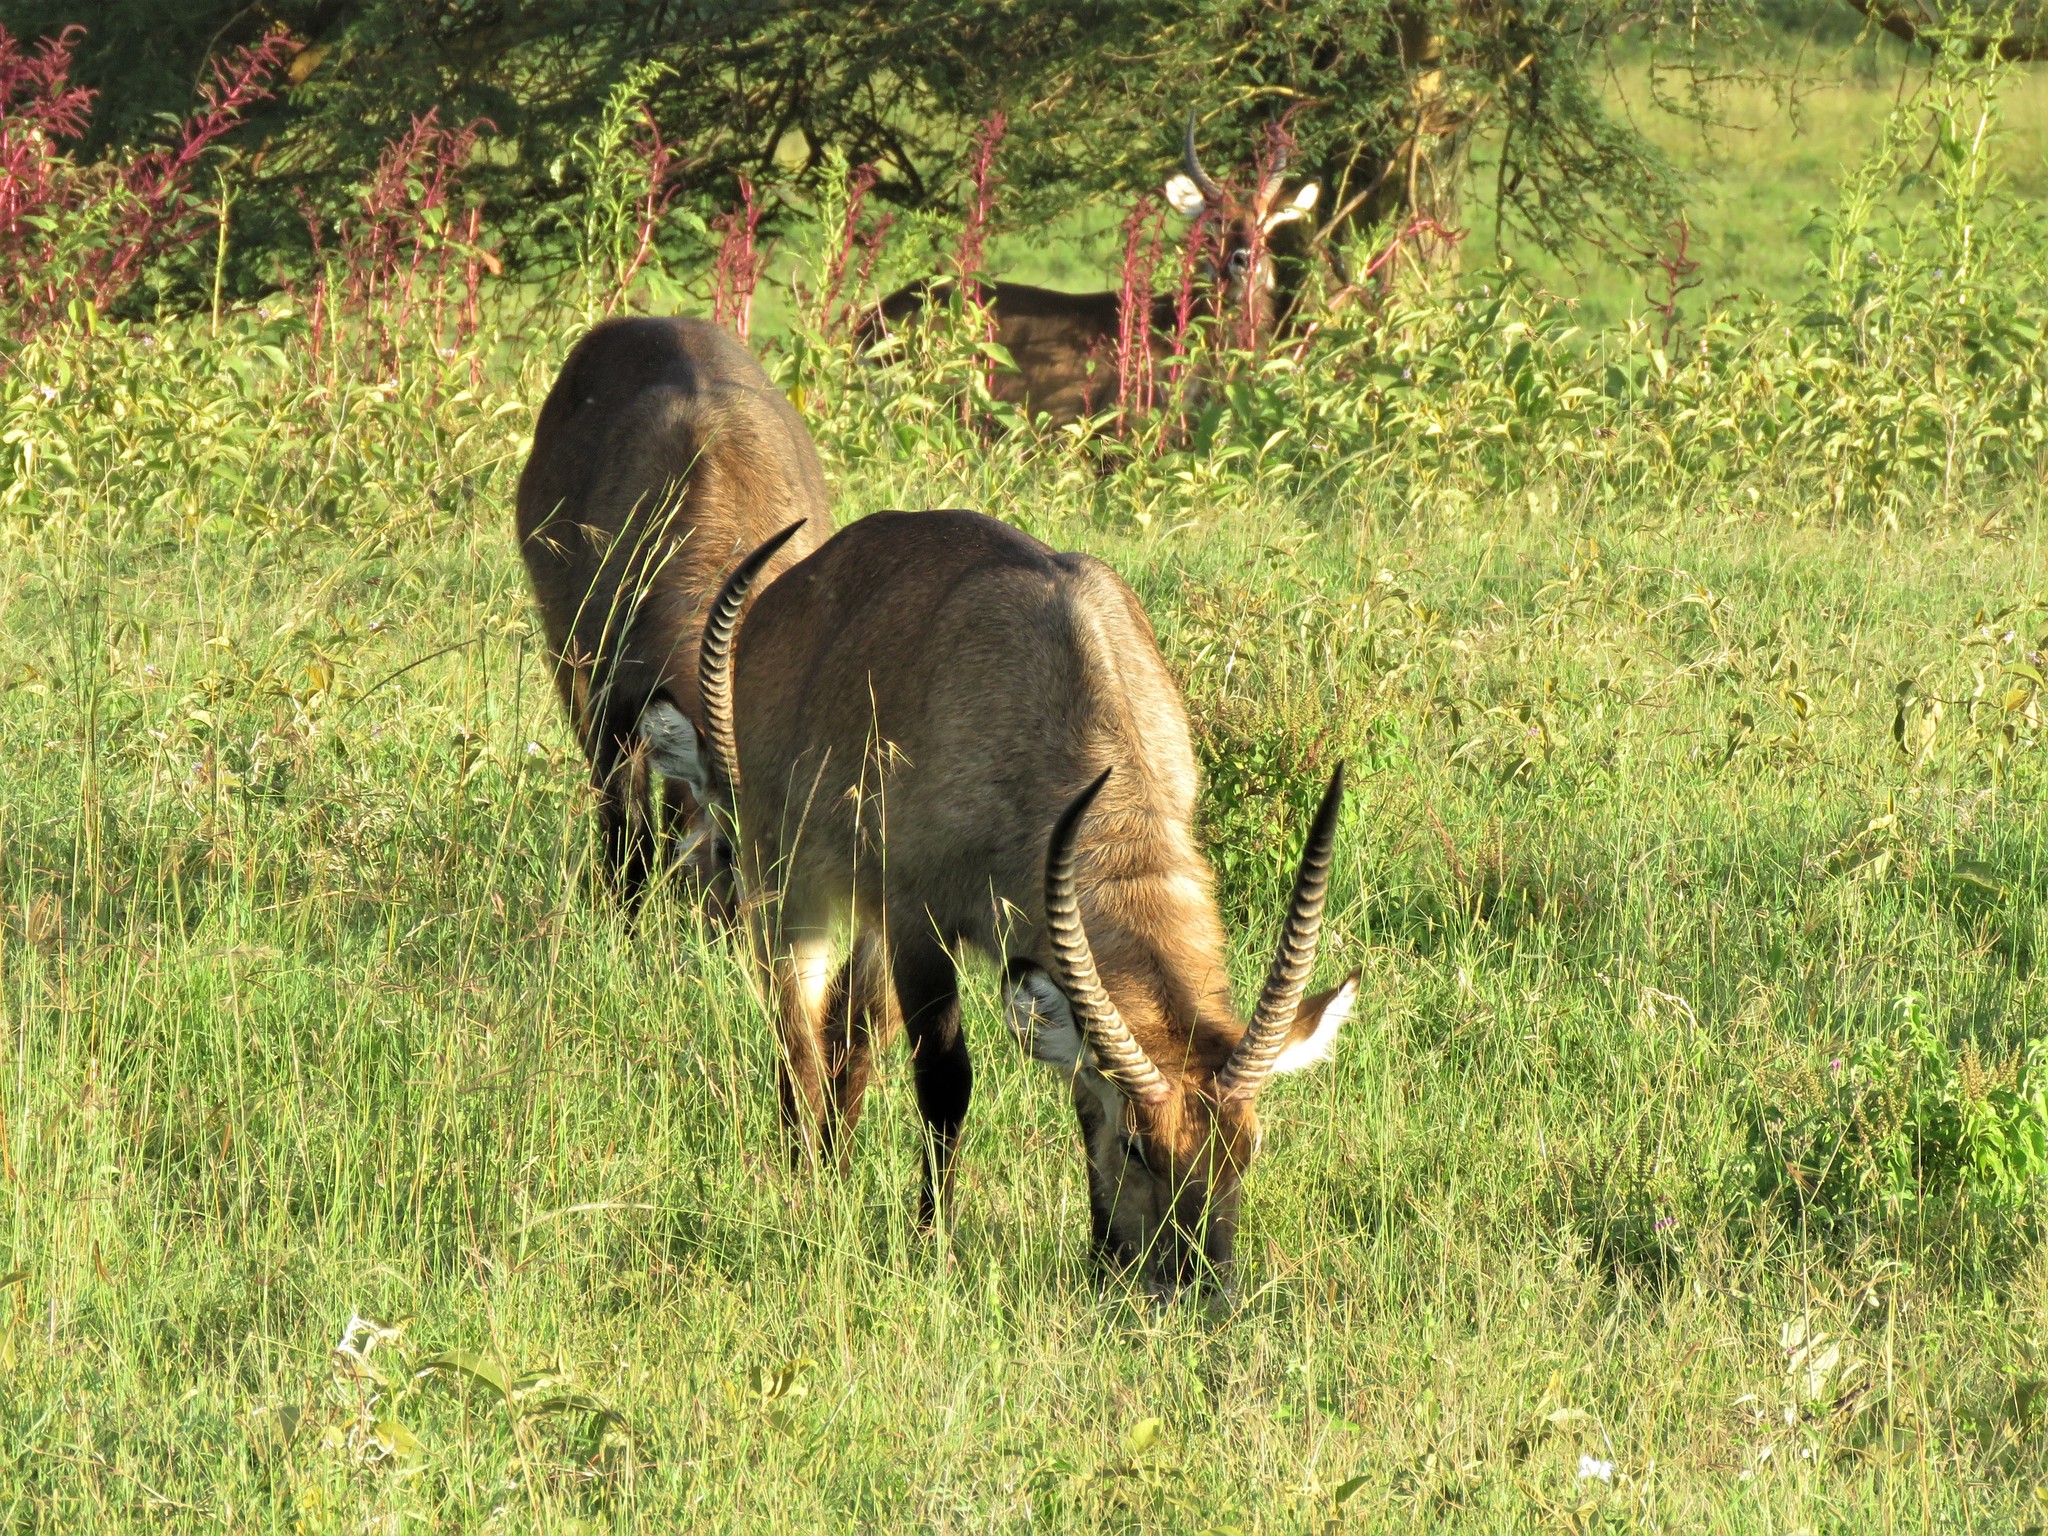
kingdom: Animalia
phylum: Chordata
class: Mammalia
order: Artiodactyla
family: Bovidae
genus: Kobus
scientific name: Kobus ellipsiprymnus
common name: Waterbuck
